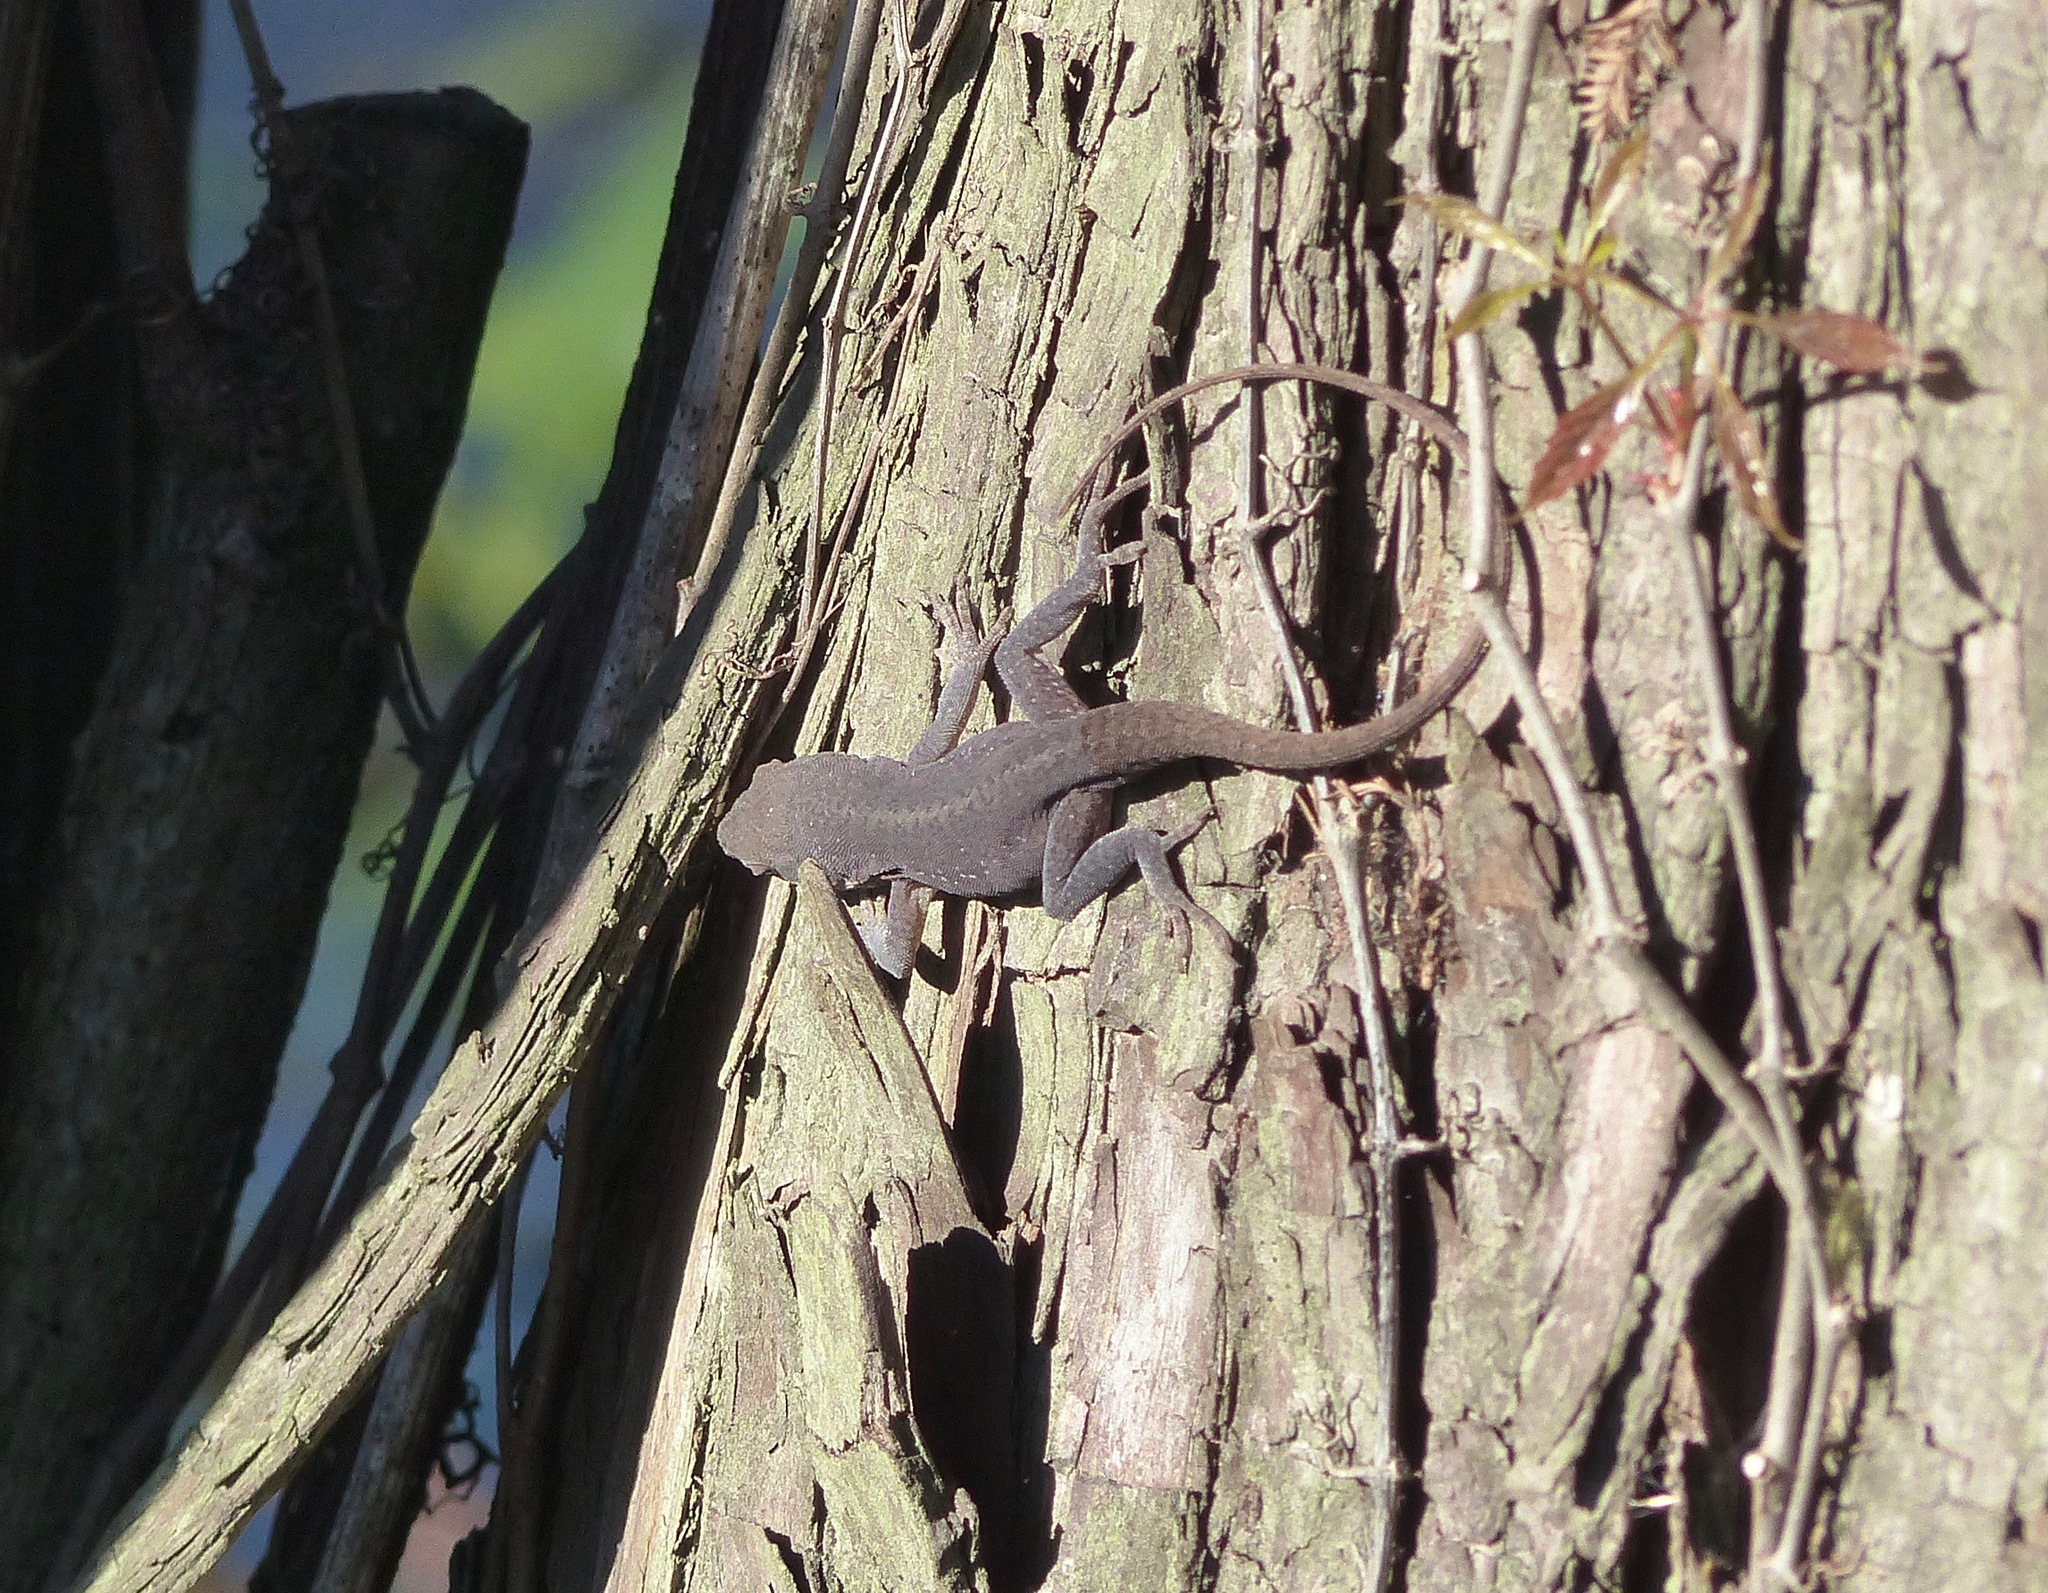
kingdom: Animalia
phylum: Chordata
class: Squamata
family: Dactyloidae
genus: Anolis
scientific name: Anolis carolinensis
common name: Green anole
